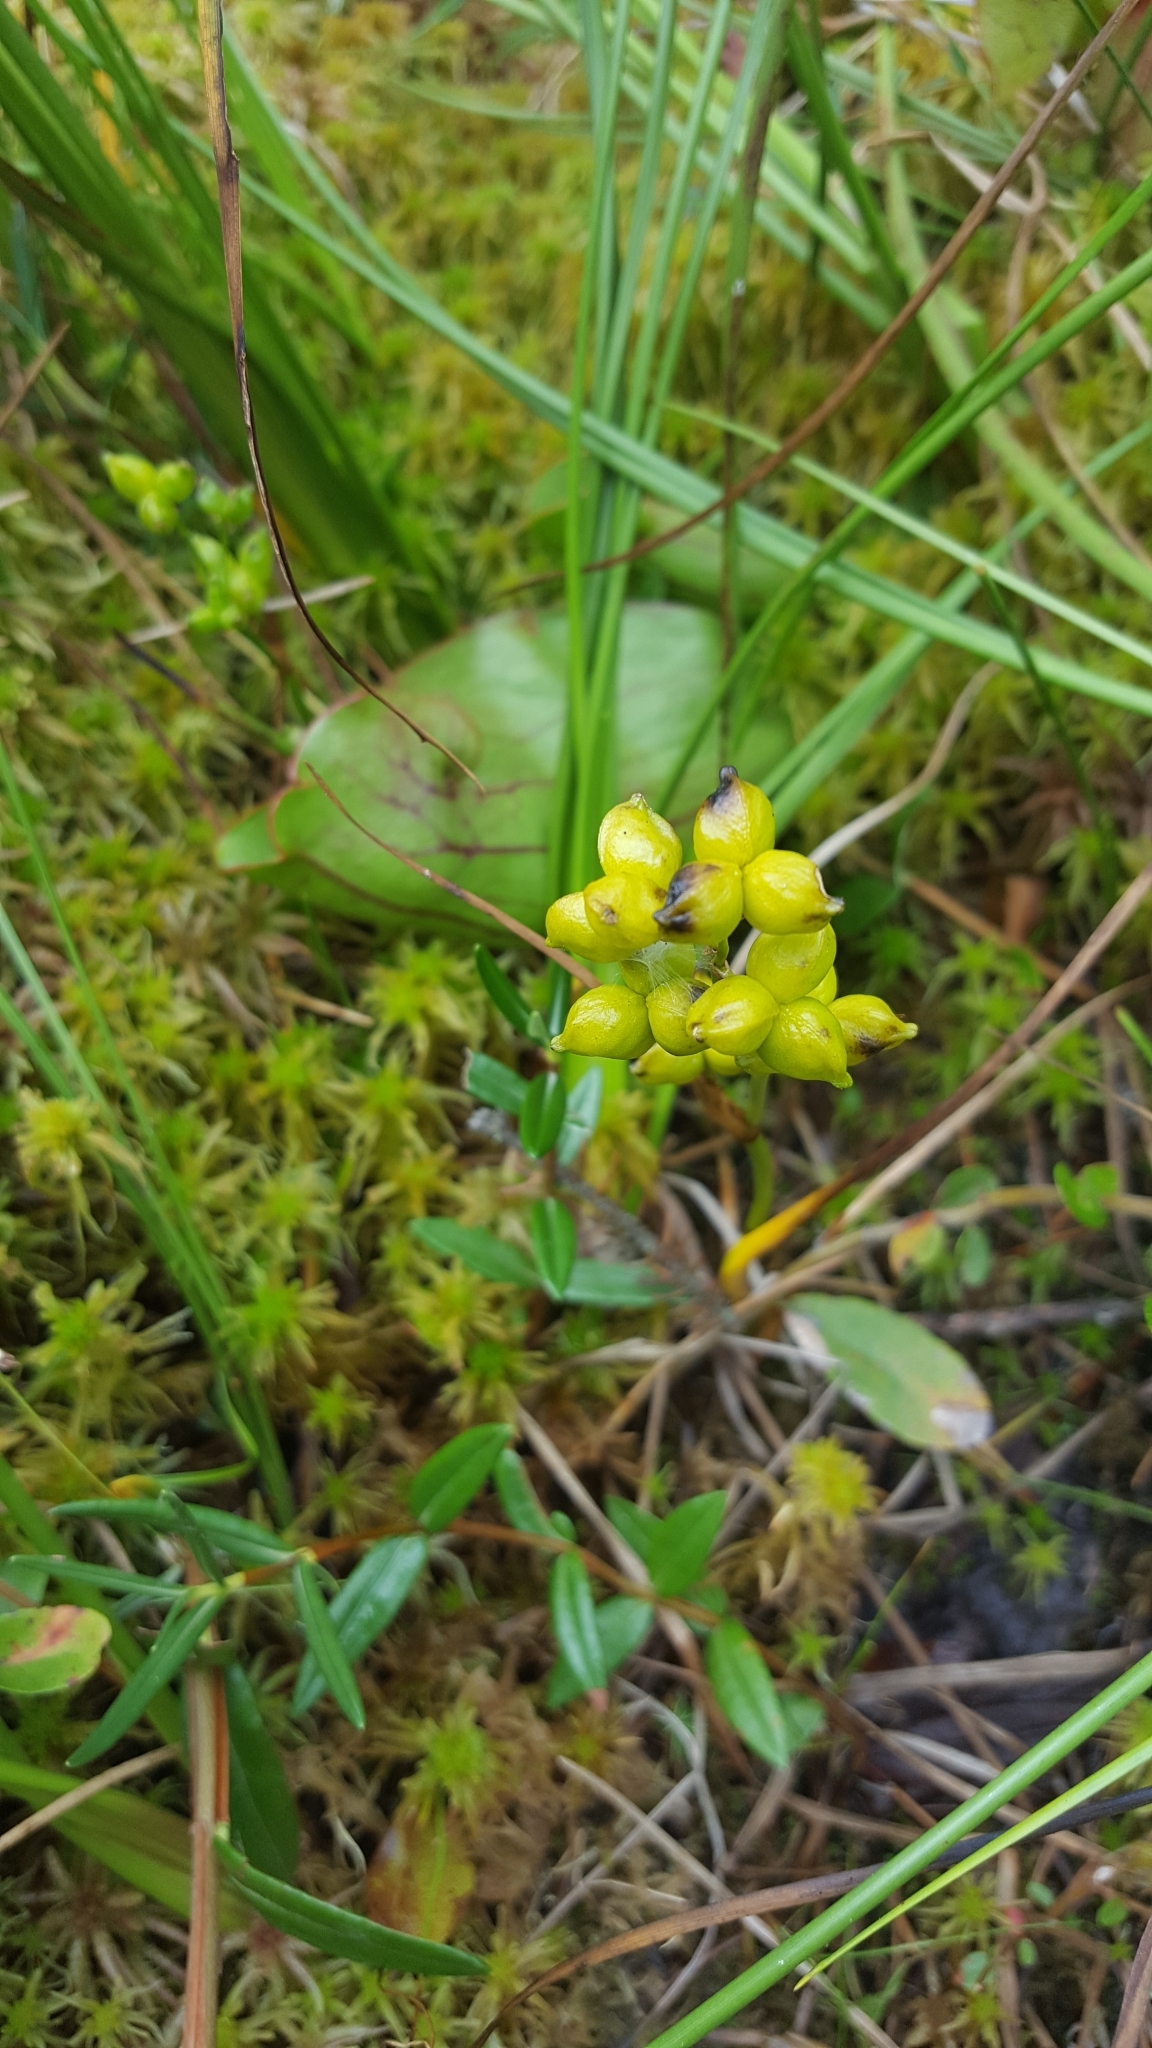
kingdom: Plantae
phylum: Tracheophyta
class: Liliopsida
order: Alismatales
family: Scheuchzeriaceae
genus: Scheuchzeria
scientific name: Scheuchzeria palustris
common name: Rannoch-rush
